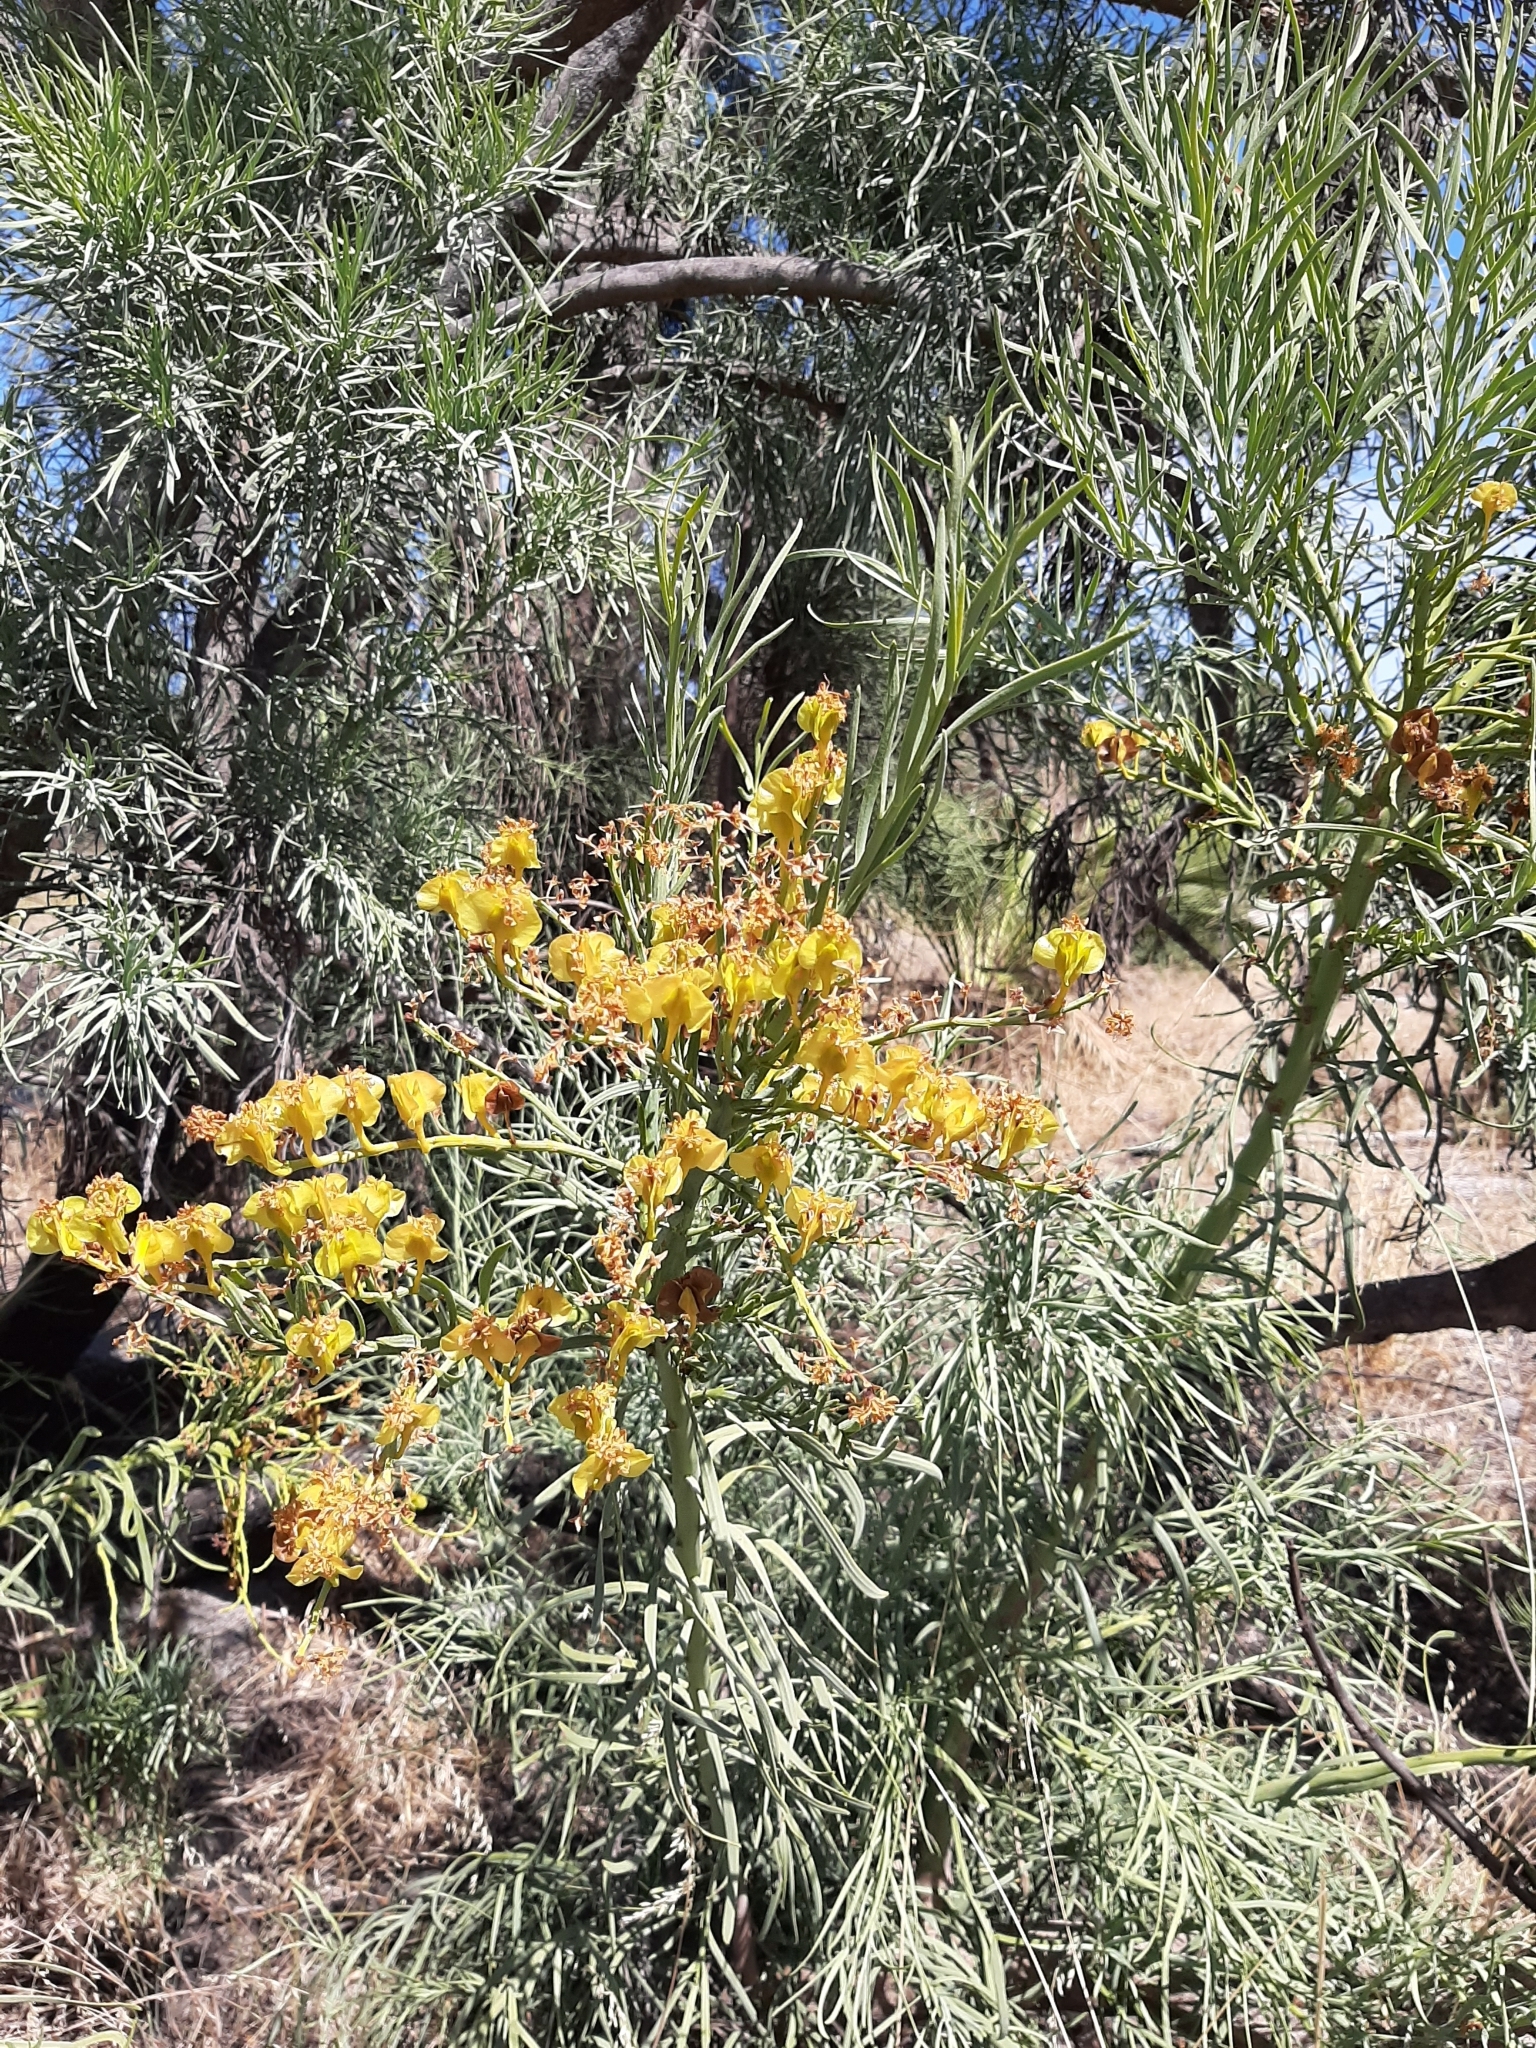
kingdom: Plantae
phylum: Tracheophyta
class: Magnoliopsida
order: Santalales
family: Loranthaceae
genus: Nuytsia
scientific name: Nuytsia floribunda
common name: Western australian christmastree
